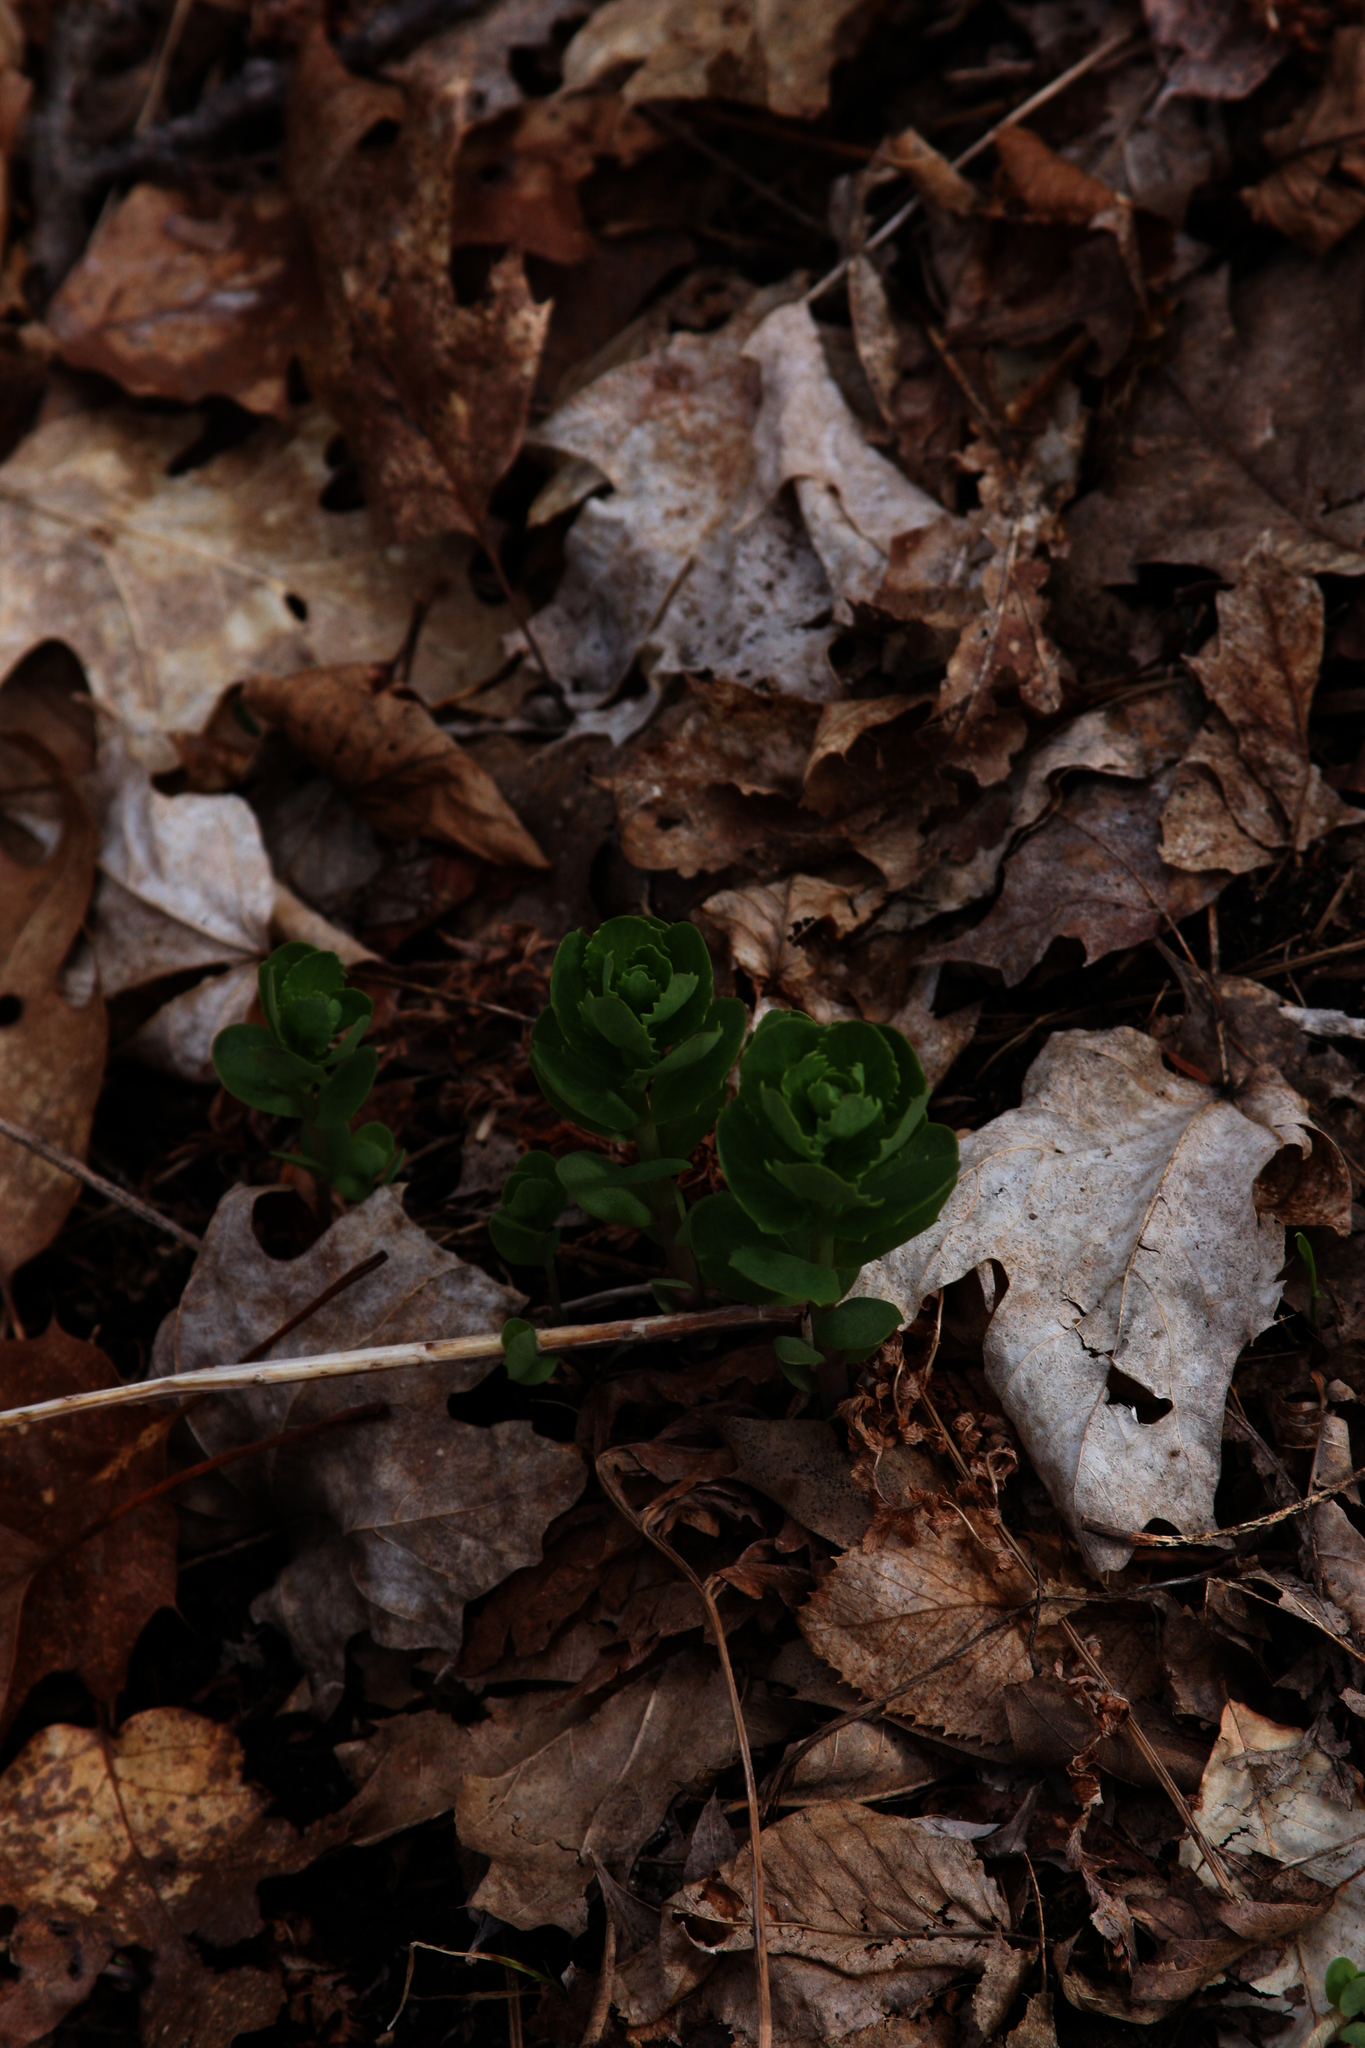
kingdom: Plantae
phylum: Tracheophyta
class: Magnoliopsida
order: Saxifragales
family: Crassulaceae
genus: Hylotelephium
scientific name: Hylotelephium telephium
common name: Live-forever
